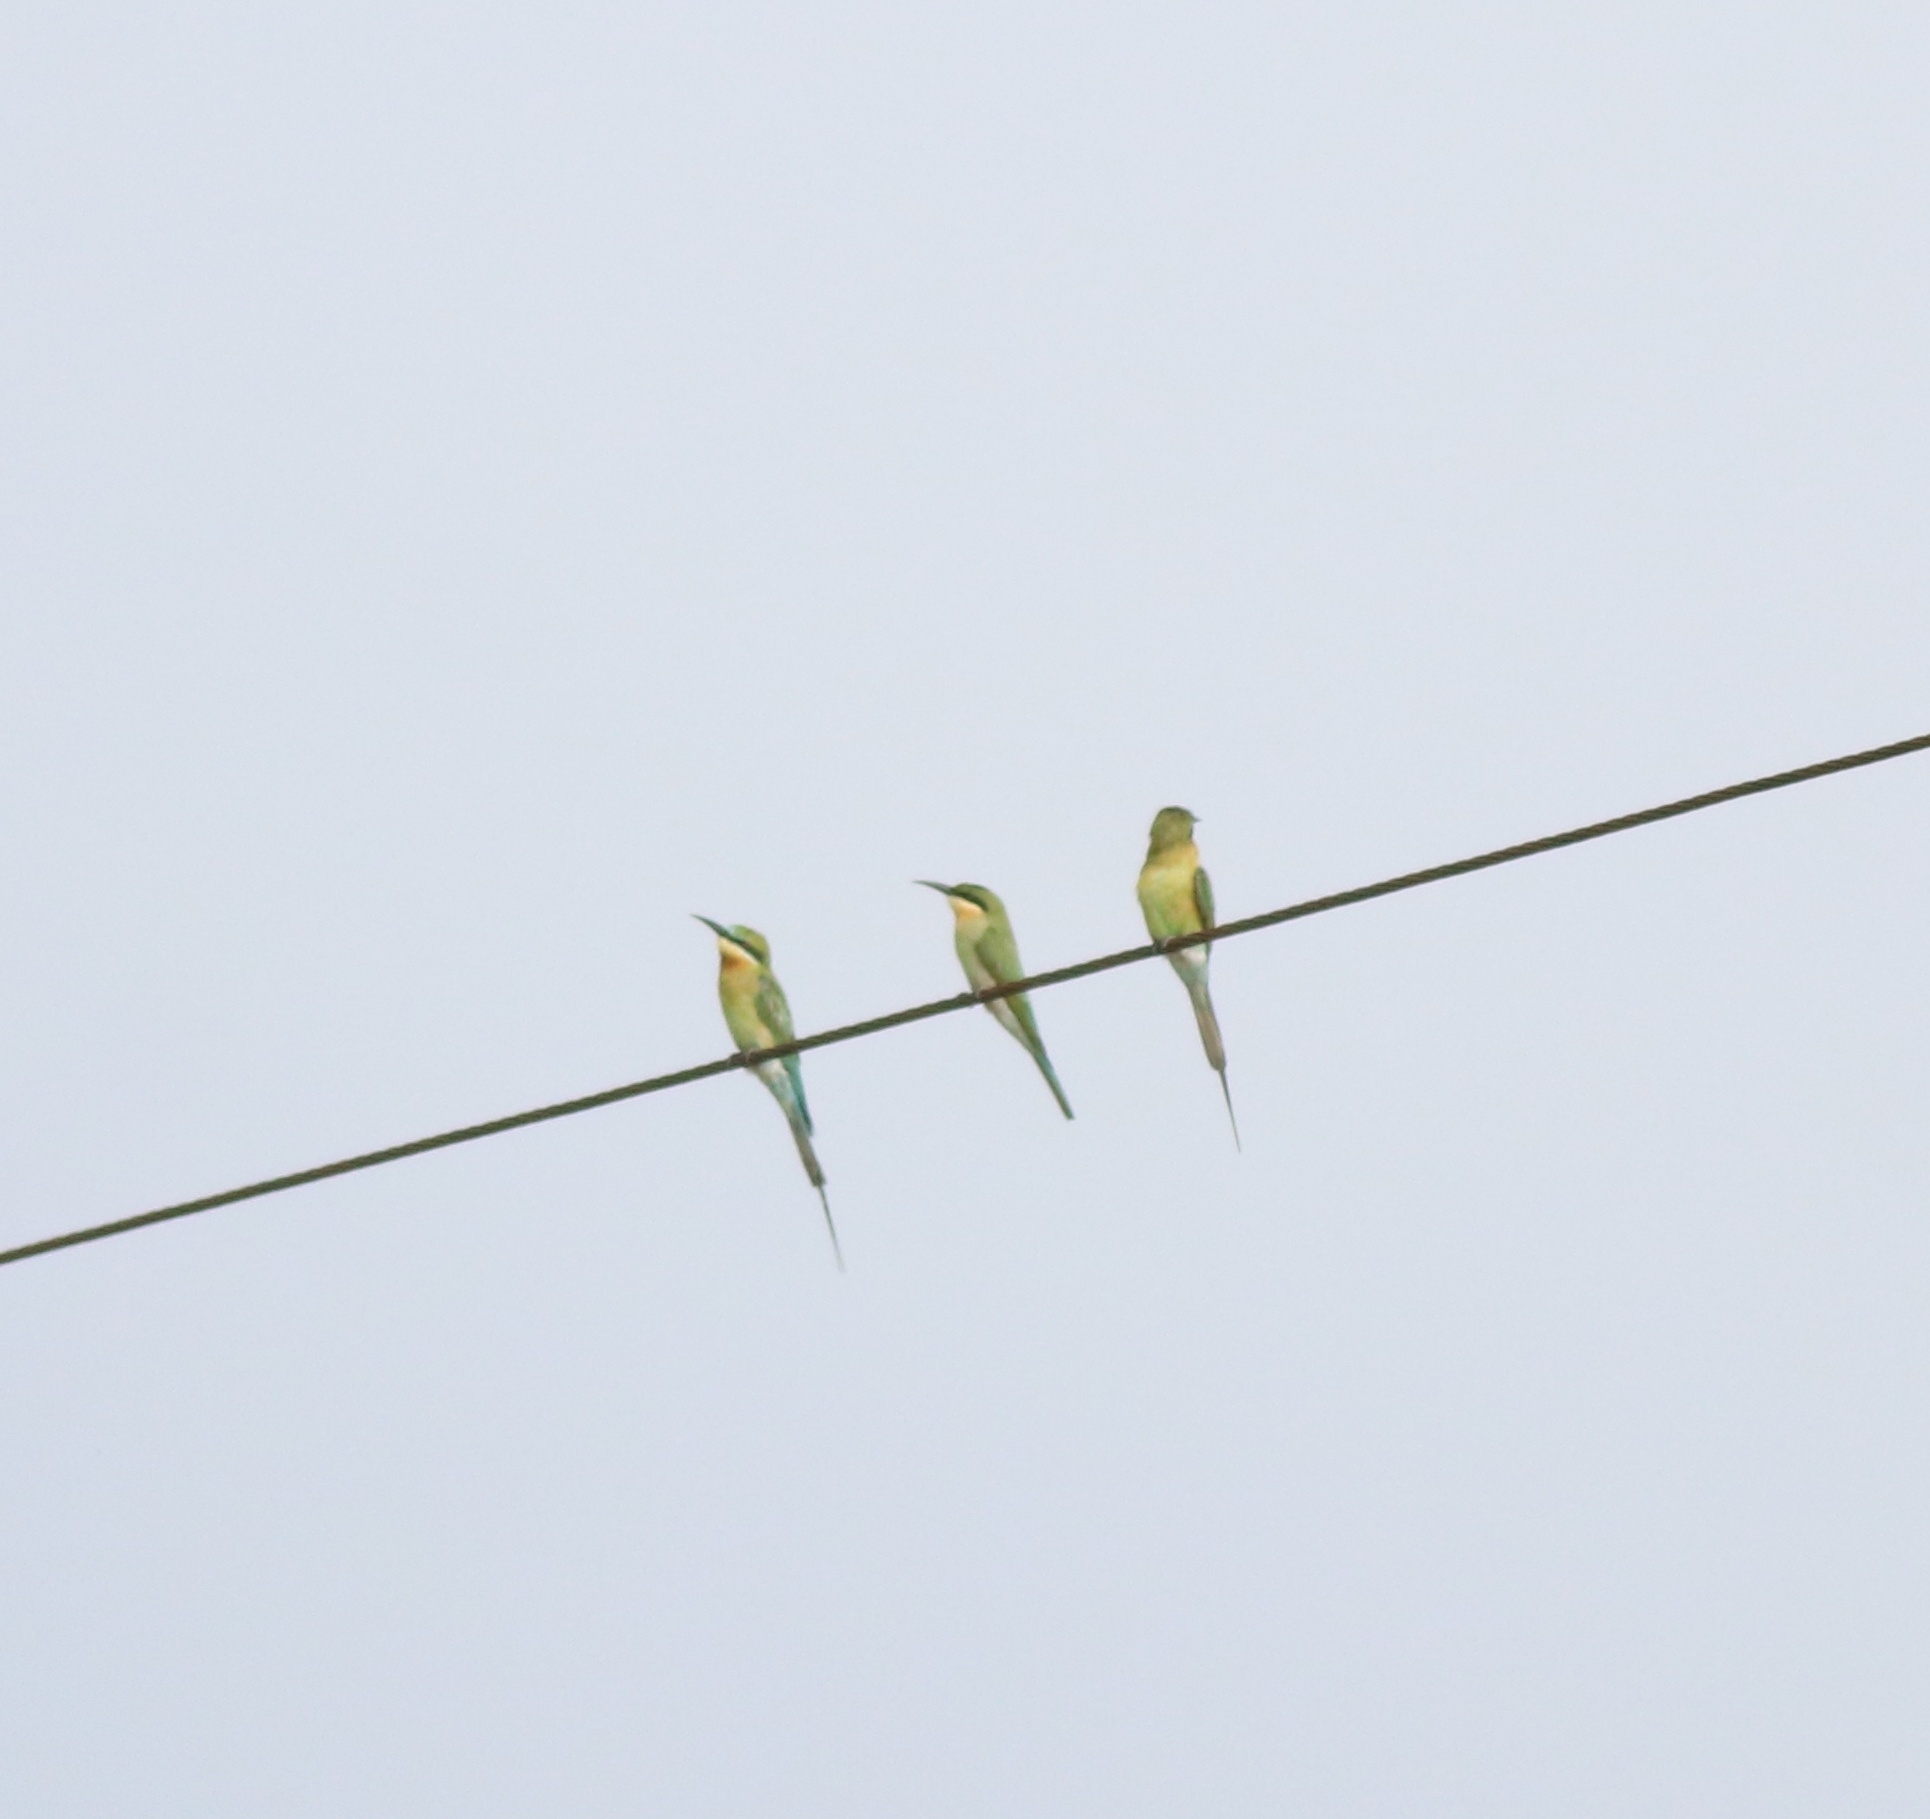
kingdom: Animalia
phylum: Chordata
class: Aves
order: Coraciiformes
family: Meropidae
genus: Merops
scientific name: Merops philippinus
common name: Blue-tailed bee-eater
